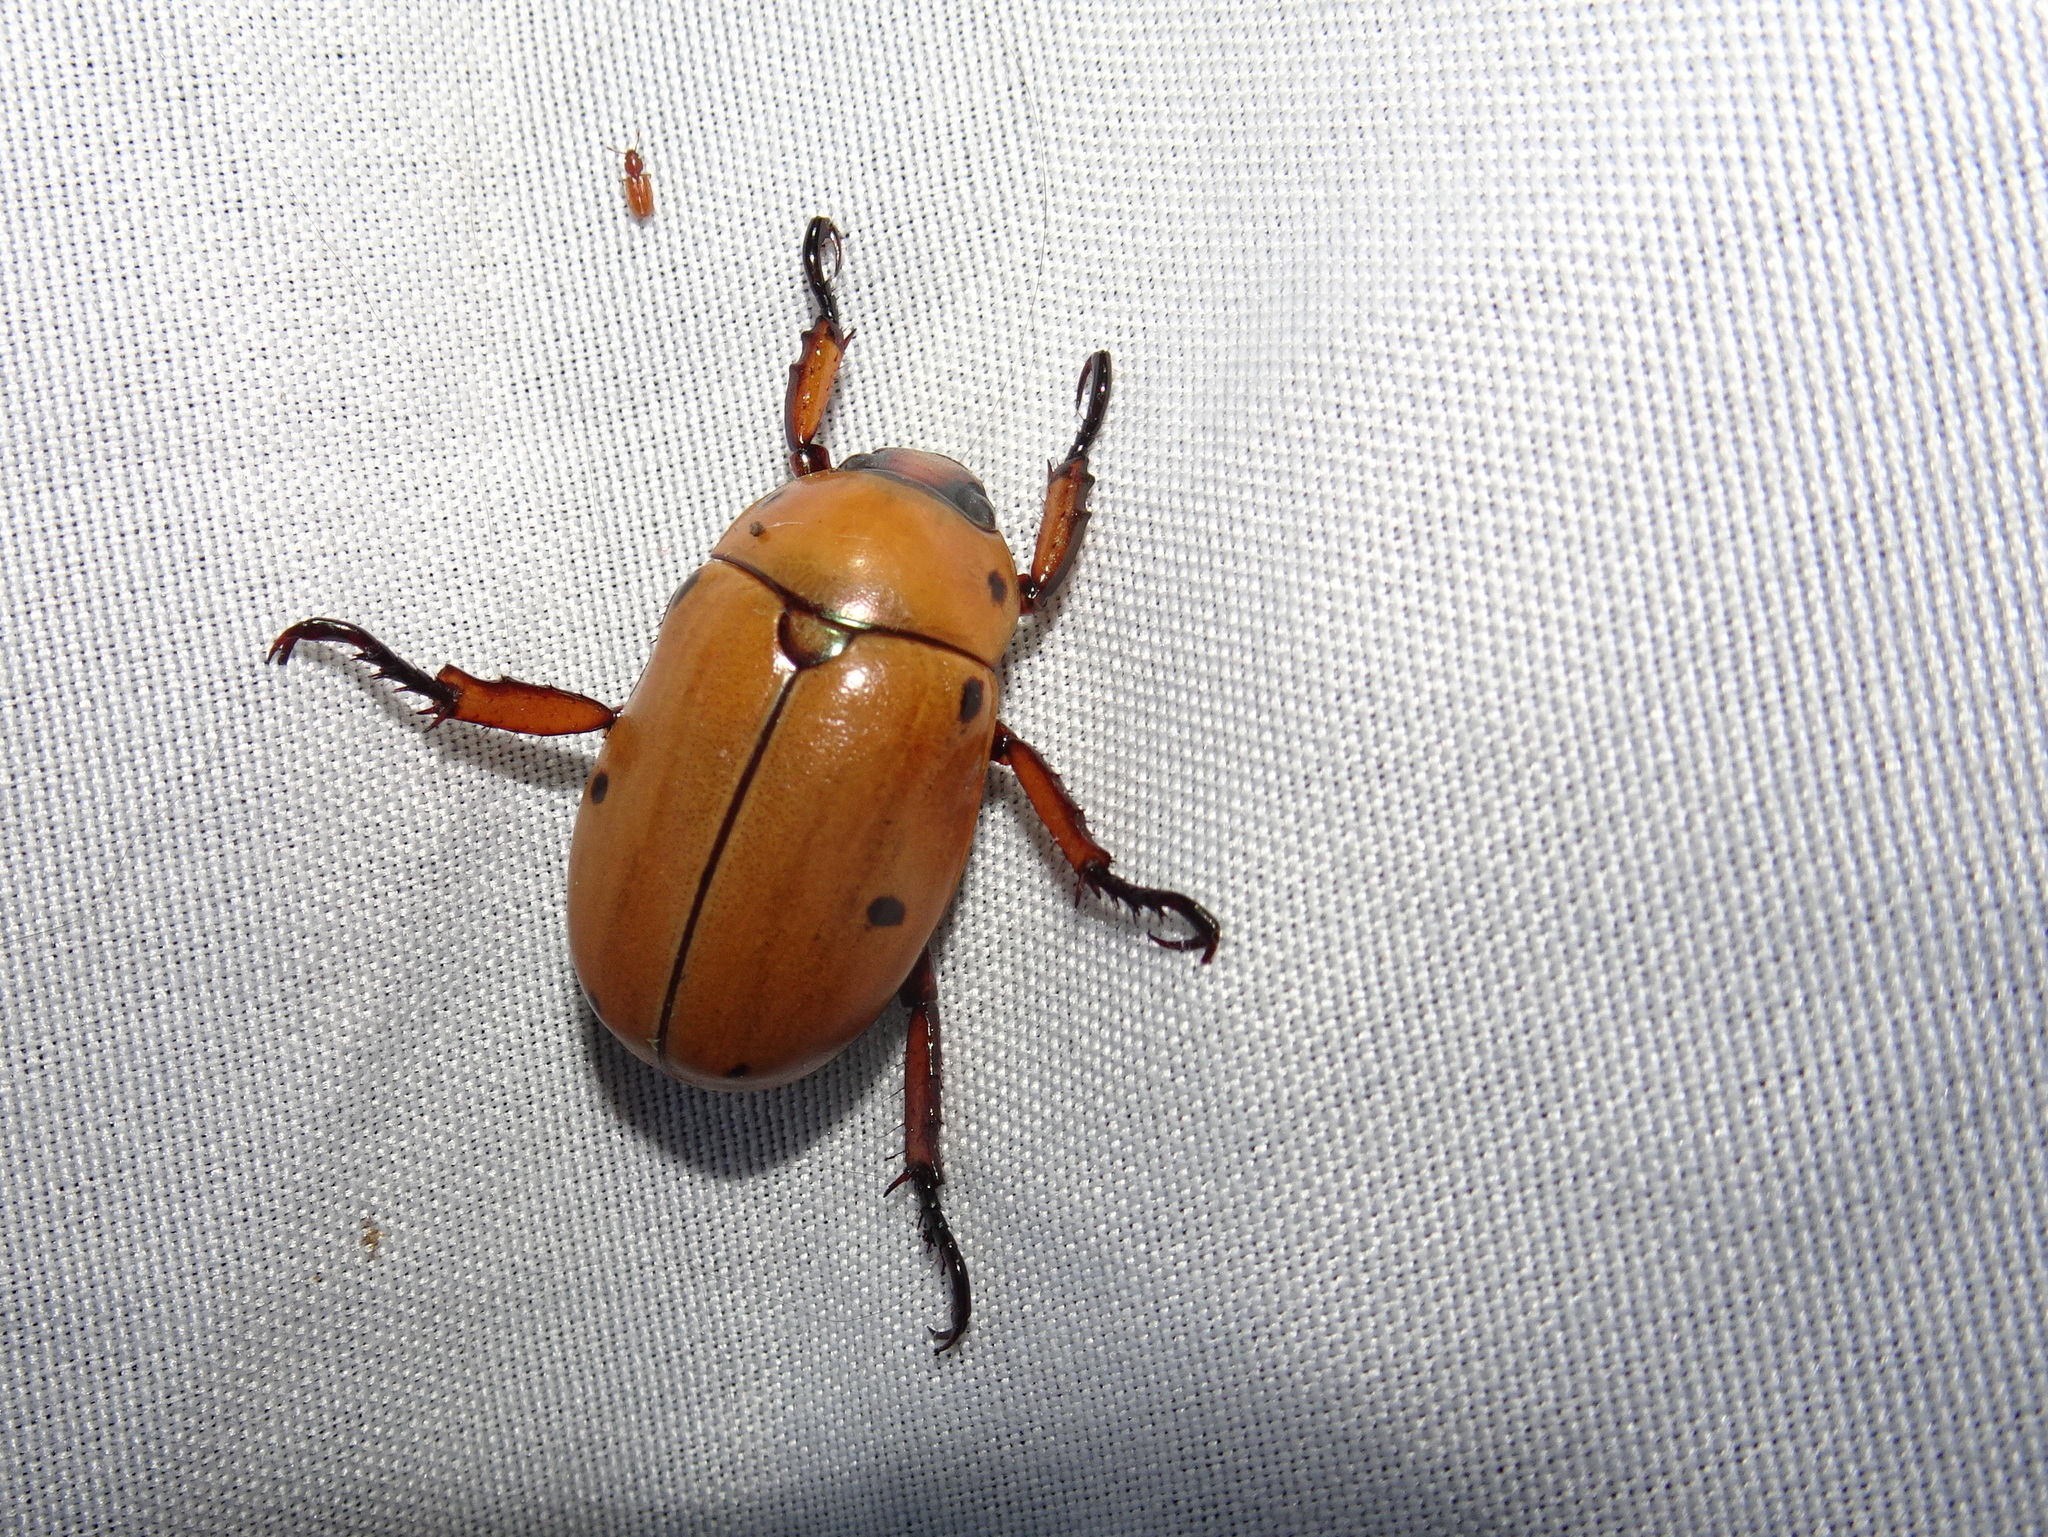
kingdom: Animalia
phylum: Arthropoda
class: Insecta
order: Coleoptera
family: Scarabaeidae
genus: Pelidnota
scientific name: Pelidnota punctata
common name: Grapevine beetle
